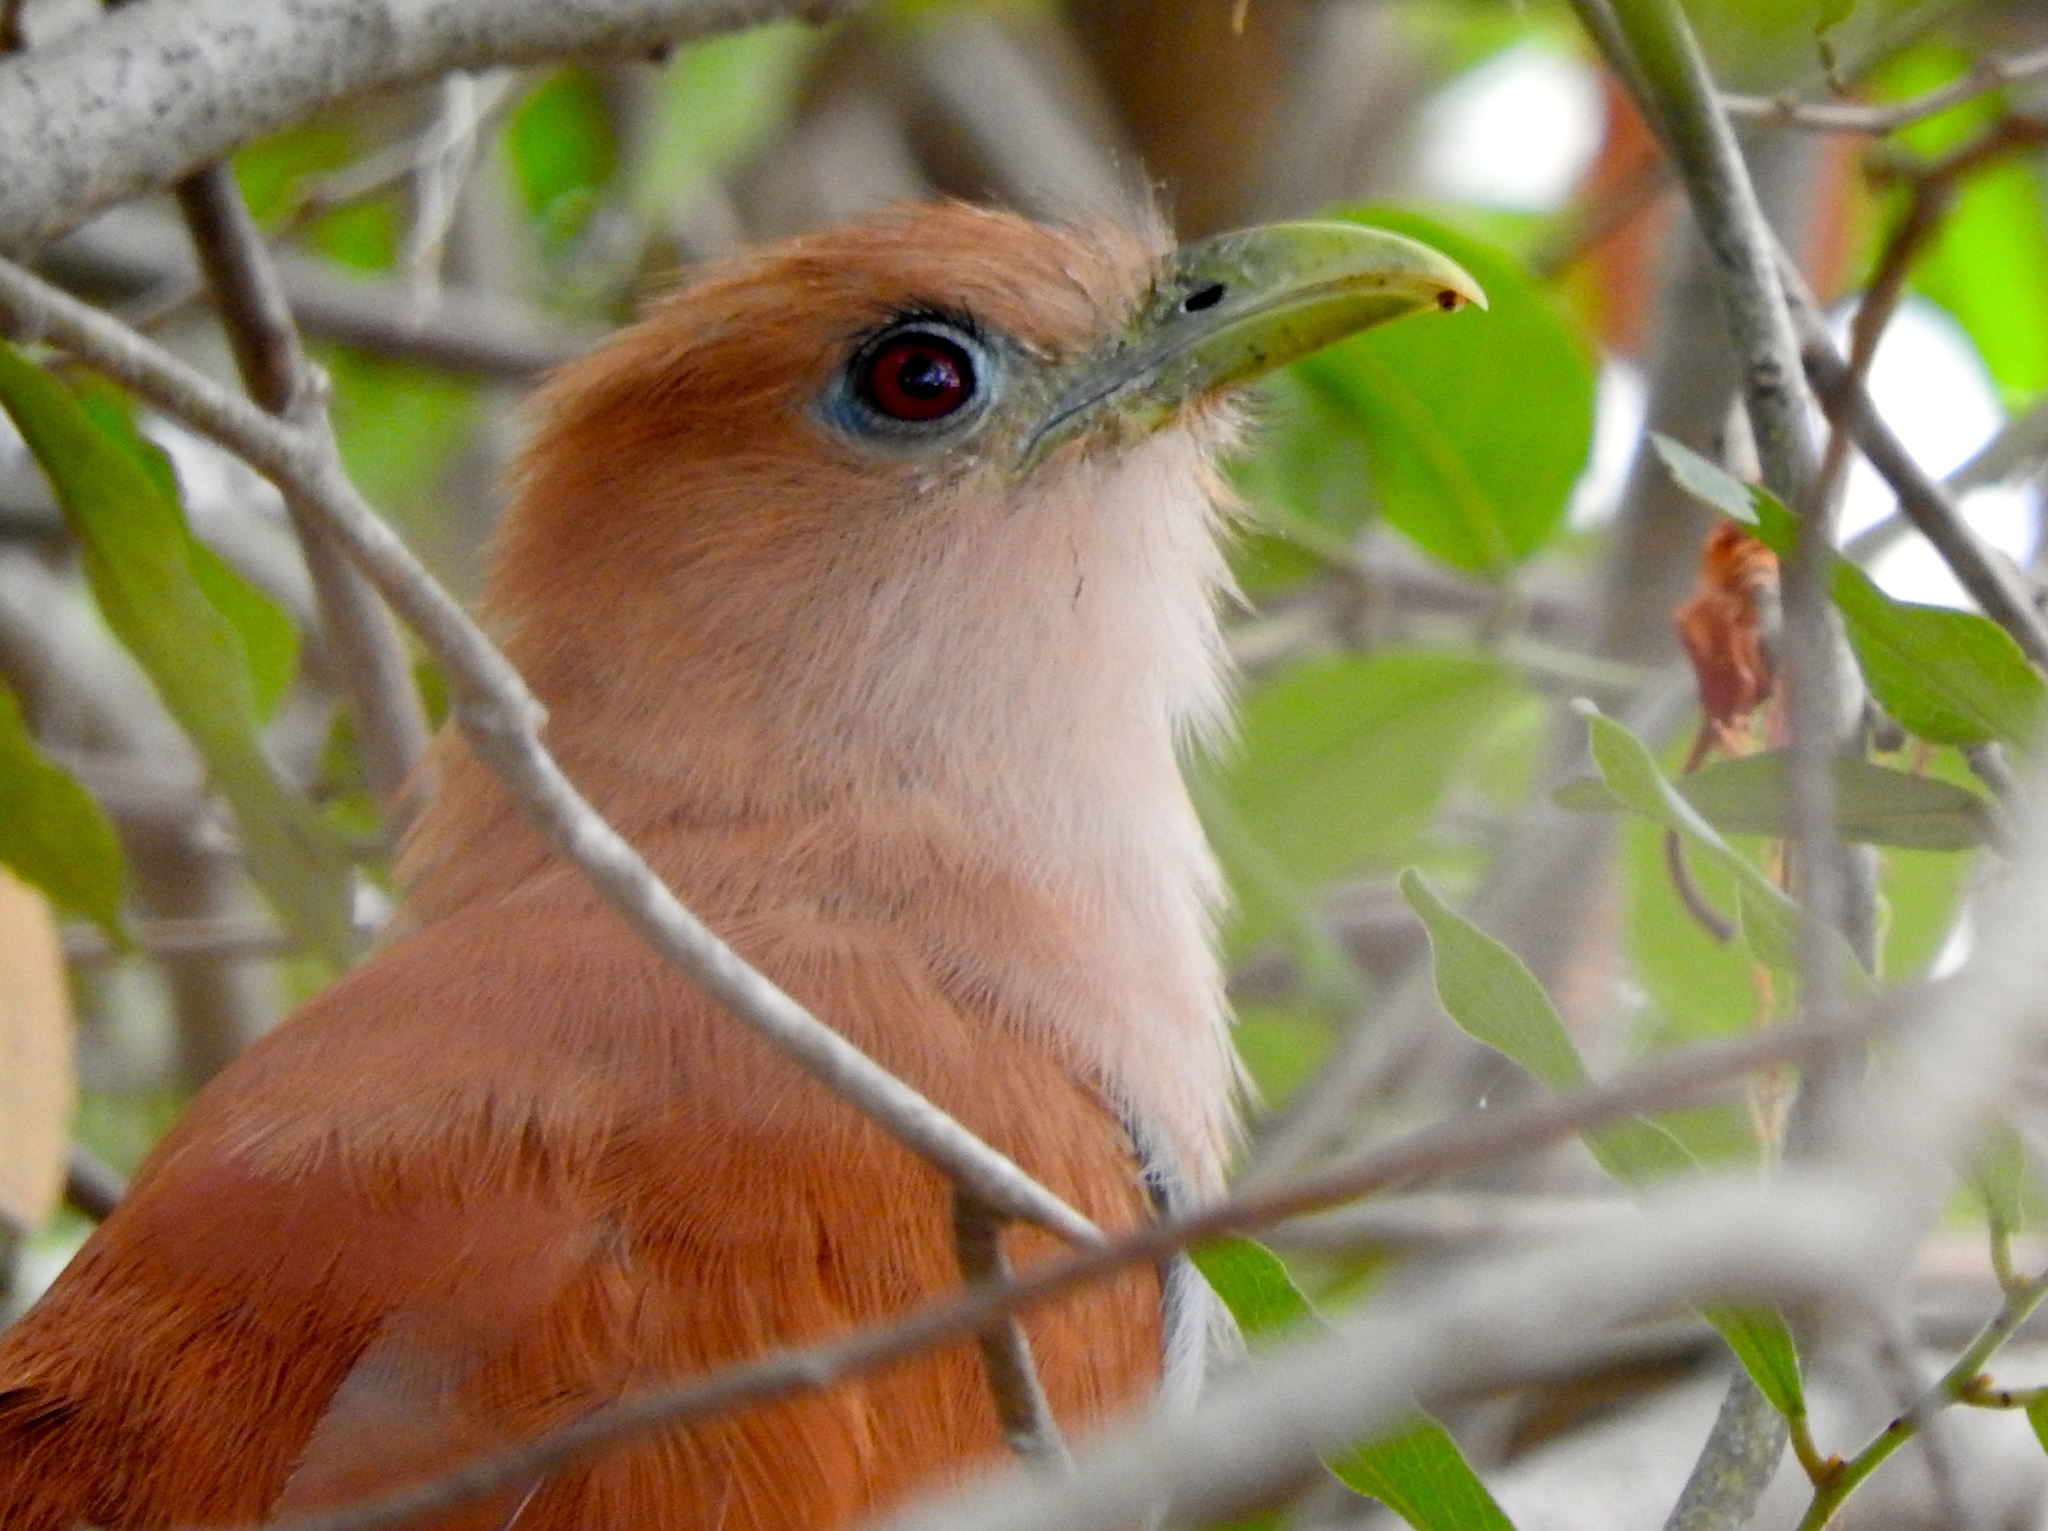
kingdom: Animalia
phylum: Chordata
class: Aves
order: Cuculiformes
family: Cuculidae
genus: Piaya
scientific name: Piaya cayana
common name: Squirrel cuckoo
